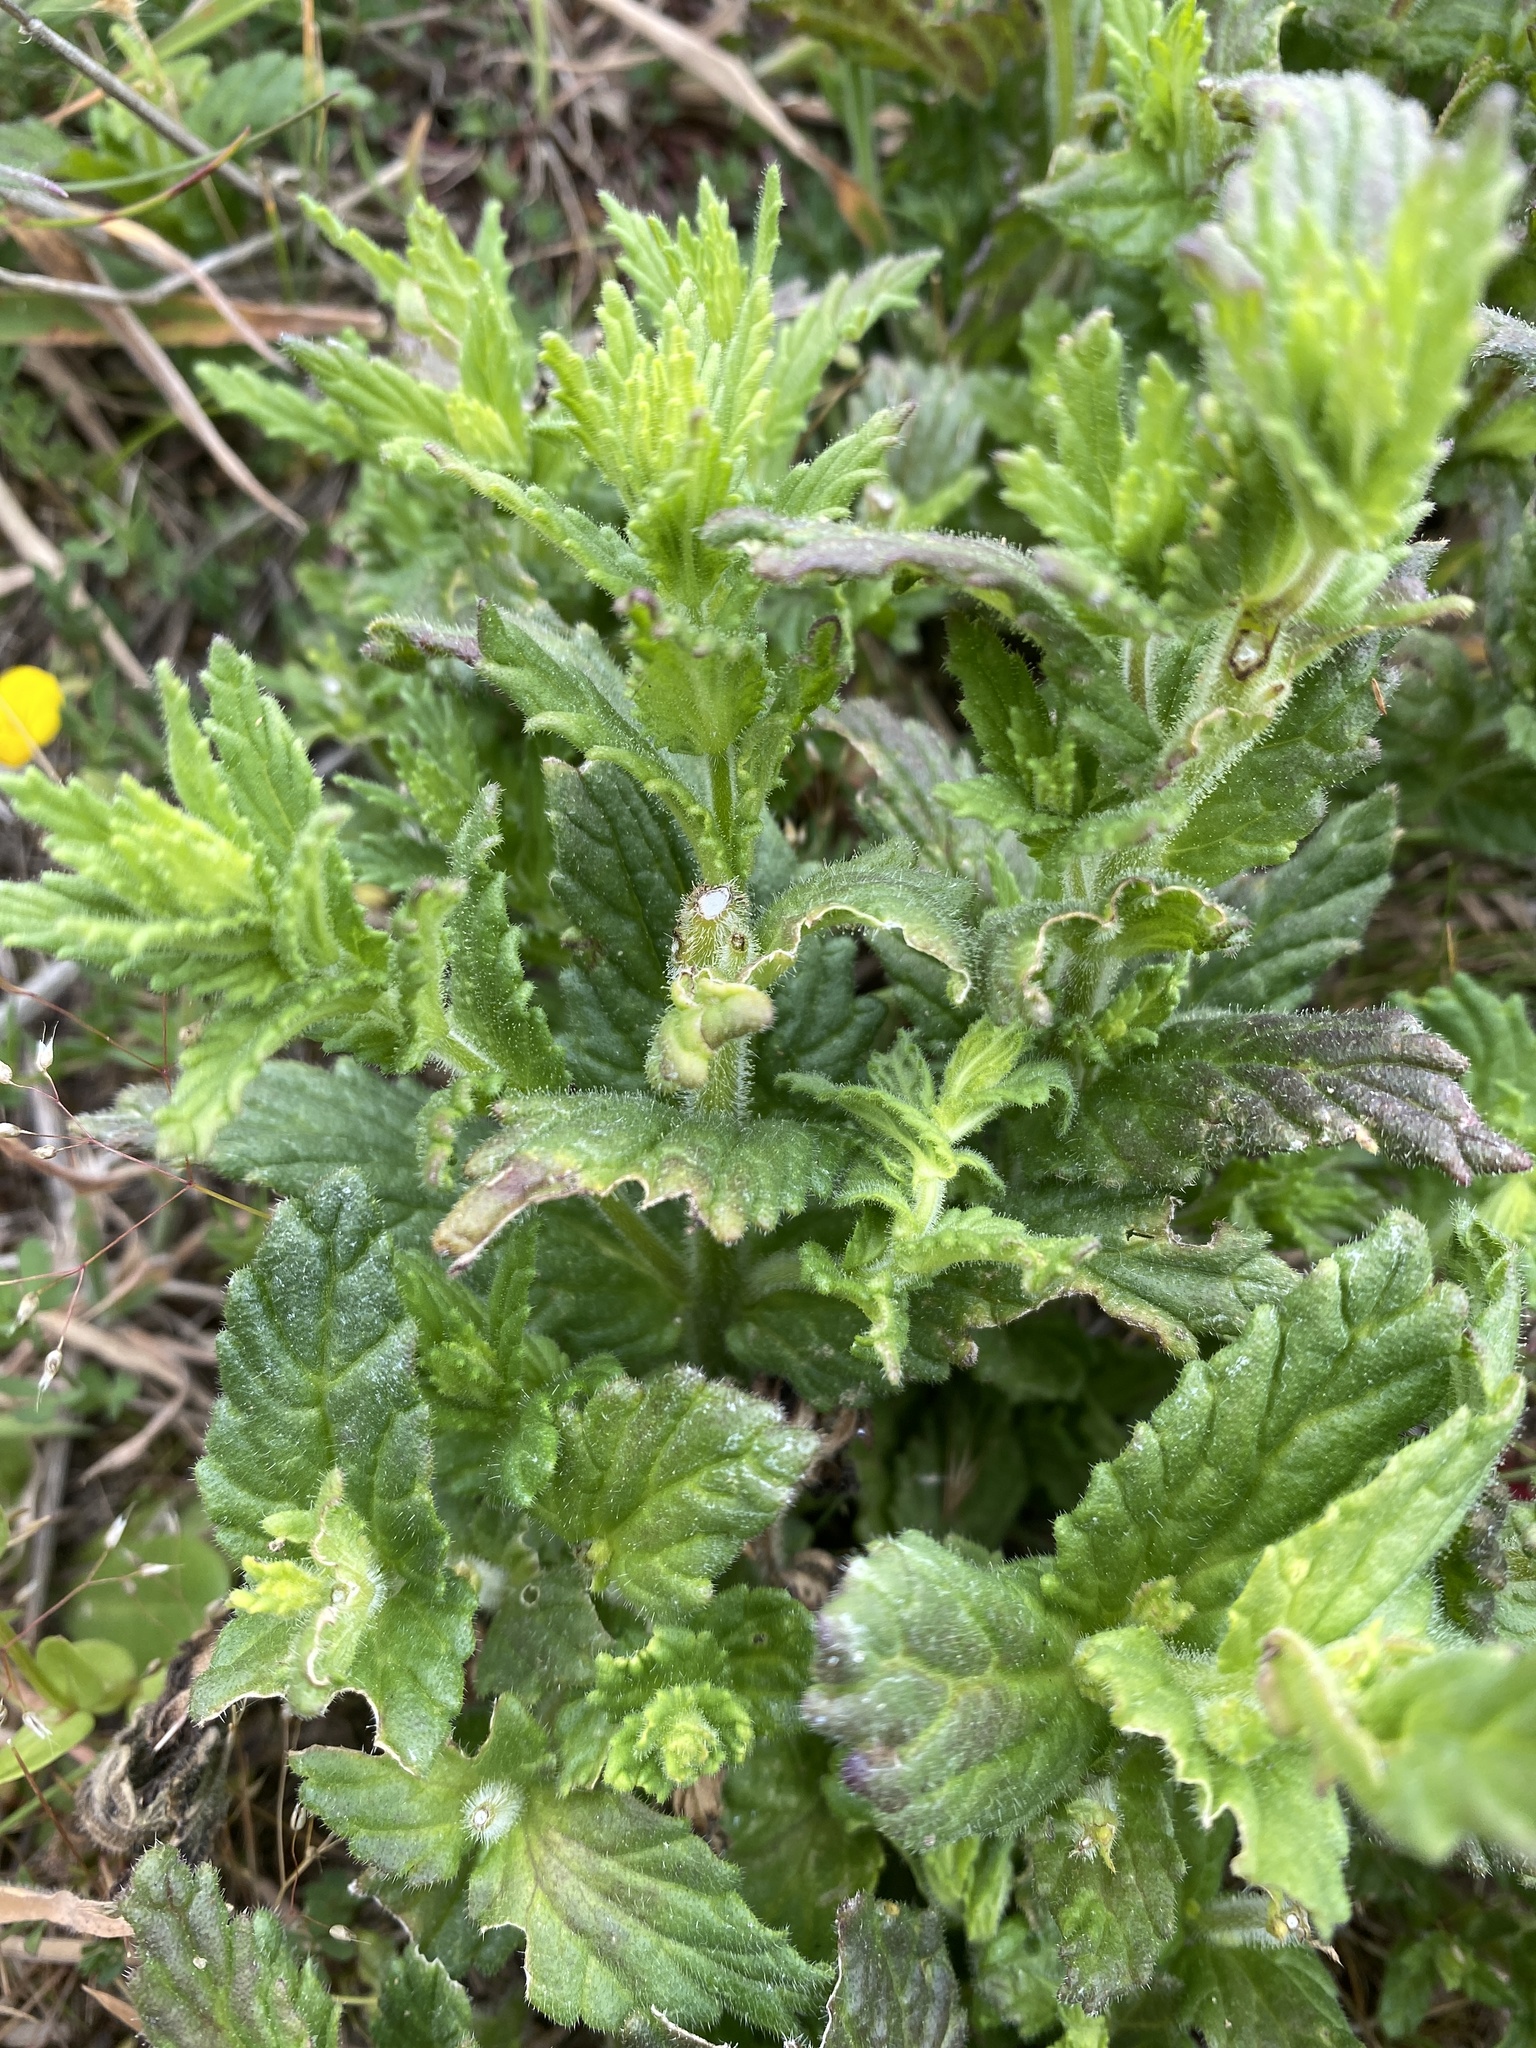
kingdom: Plantae
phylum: Tracheophyta
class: Magnoliopsida
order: Lamiales
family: Orobanchaceae
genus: Bellardia
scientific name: Bellardia viscosa
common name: Sticky parentucellia
